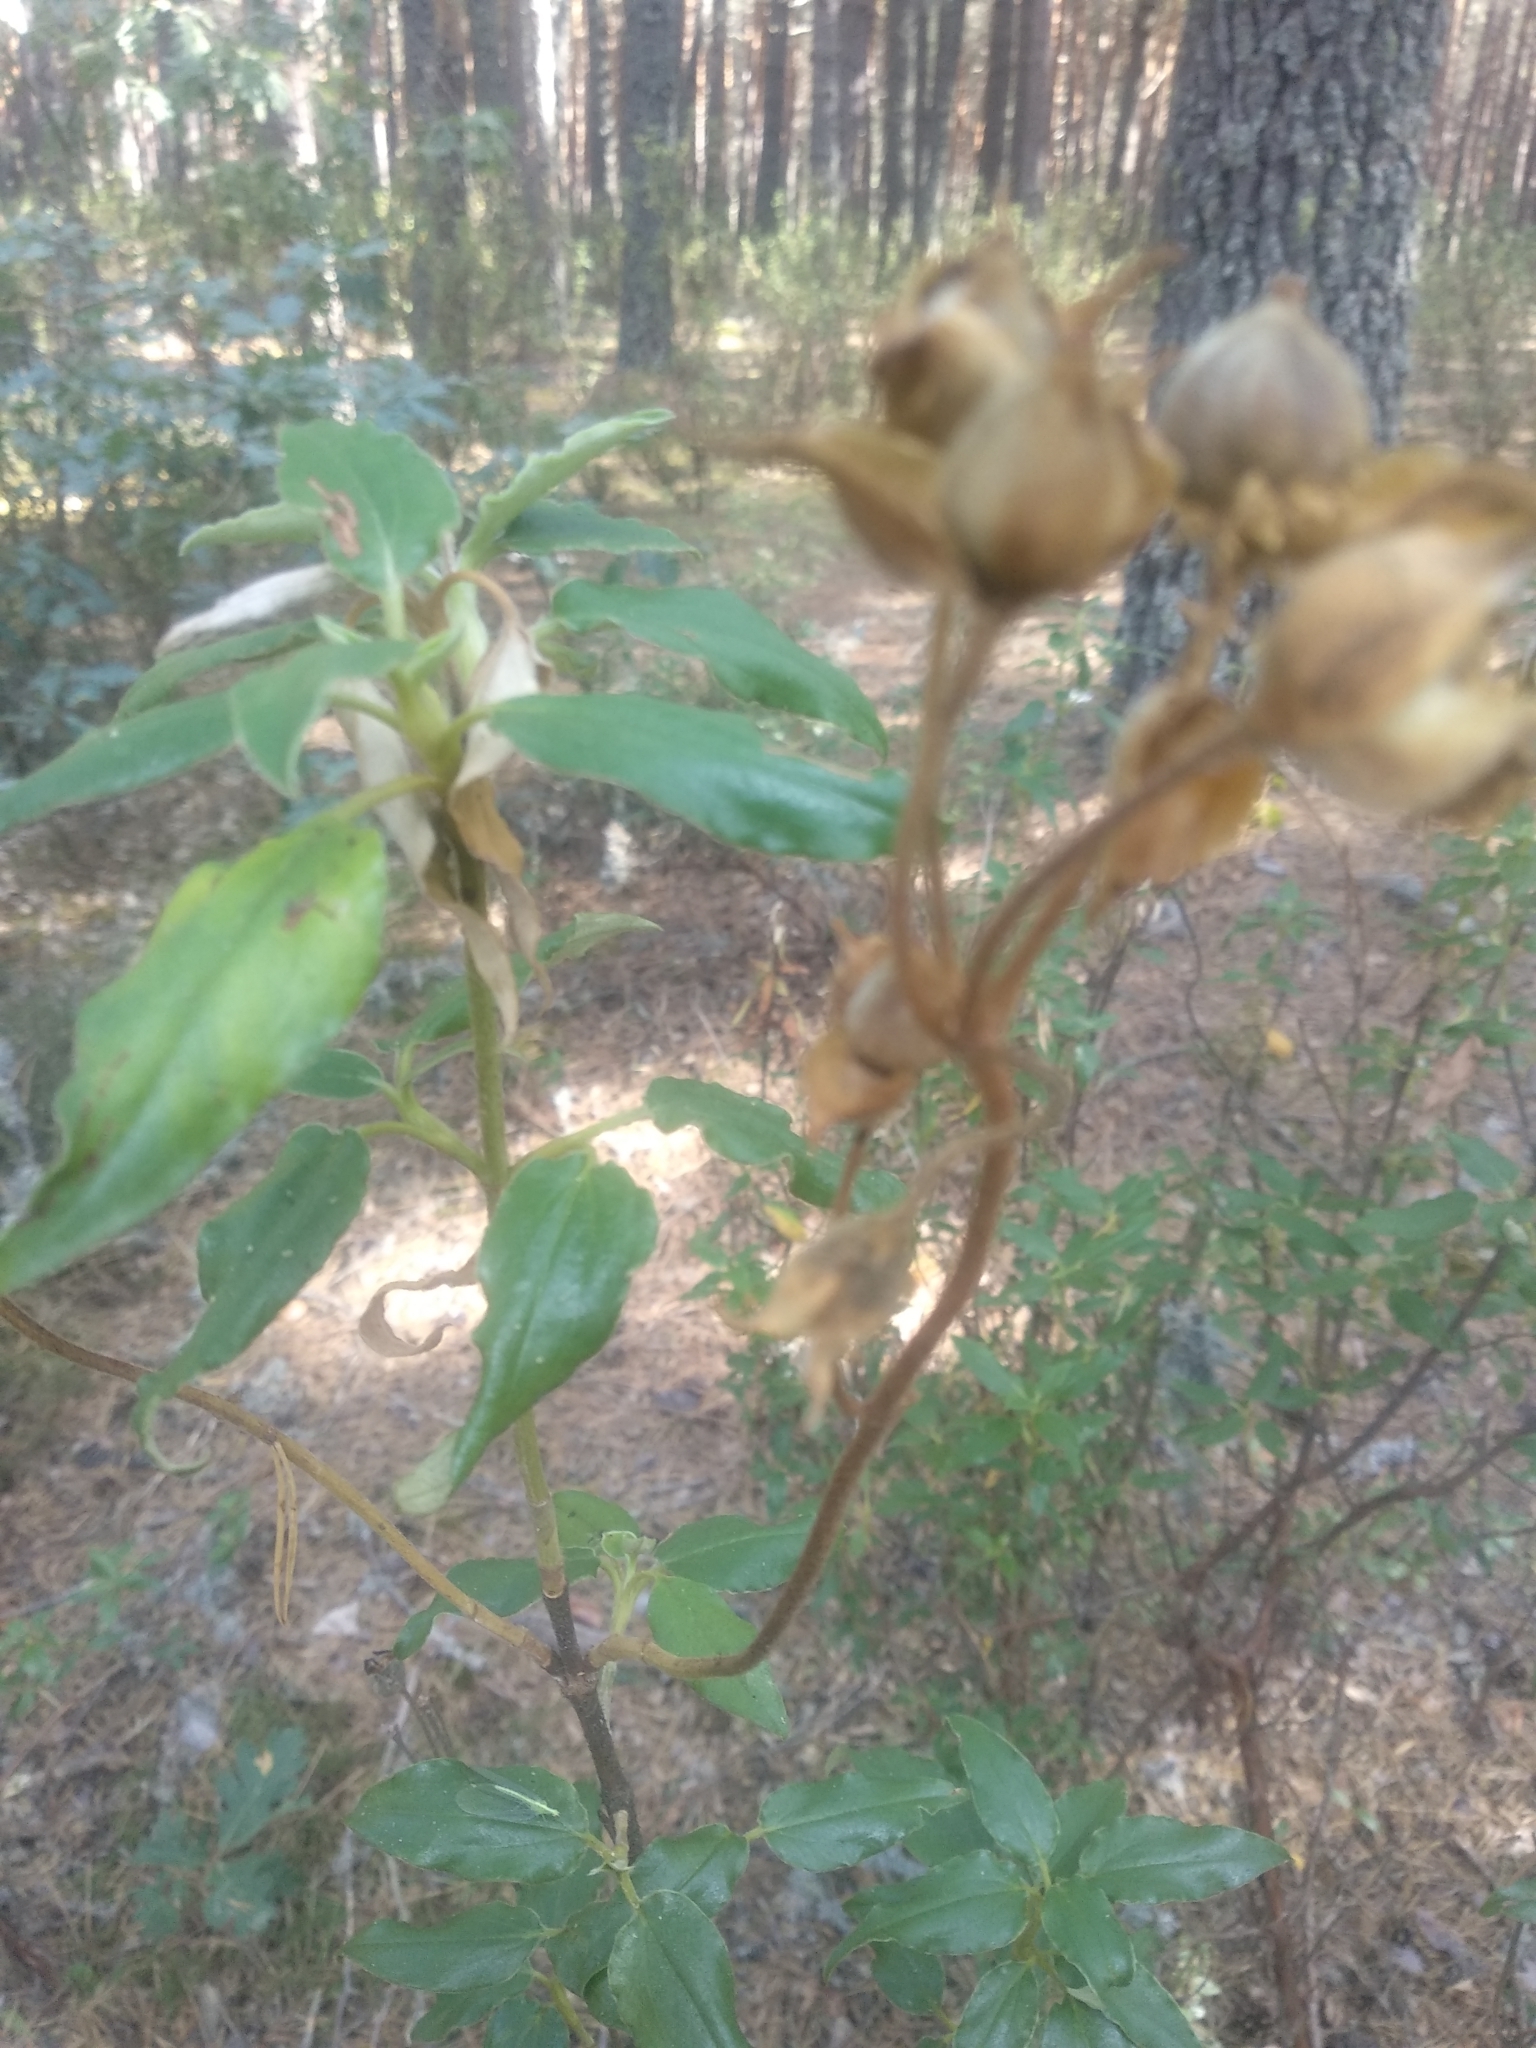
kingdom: Plantae
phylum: Tracheophyta
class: Magnoliopsida
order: Malvales
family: Cistaceae
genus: Cistus
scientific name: Cistus laurifolius
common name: Laurel-leaved cistus
